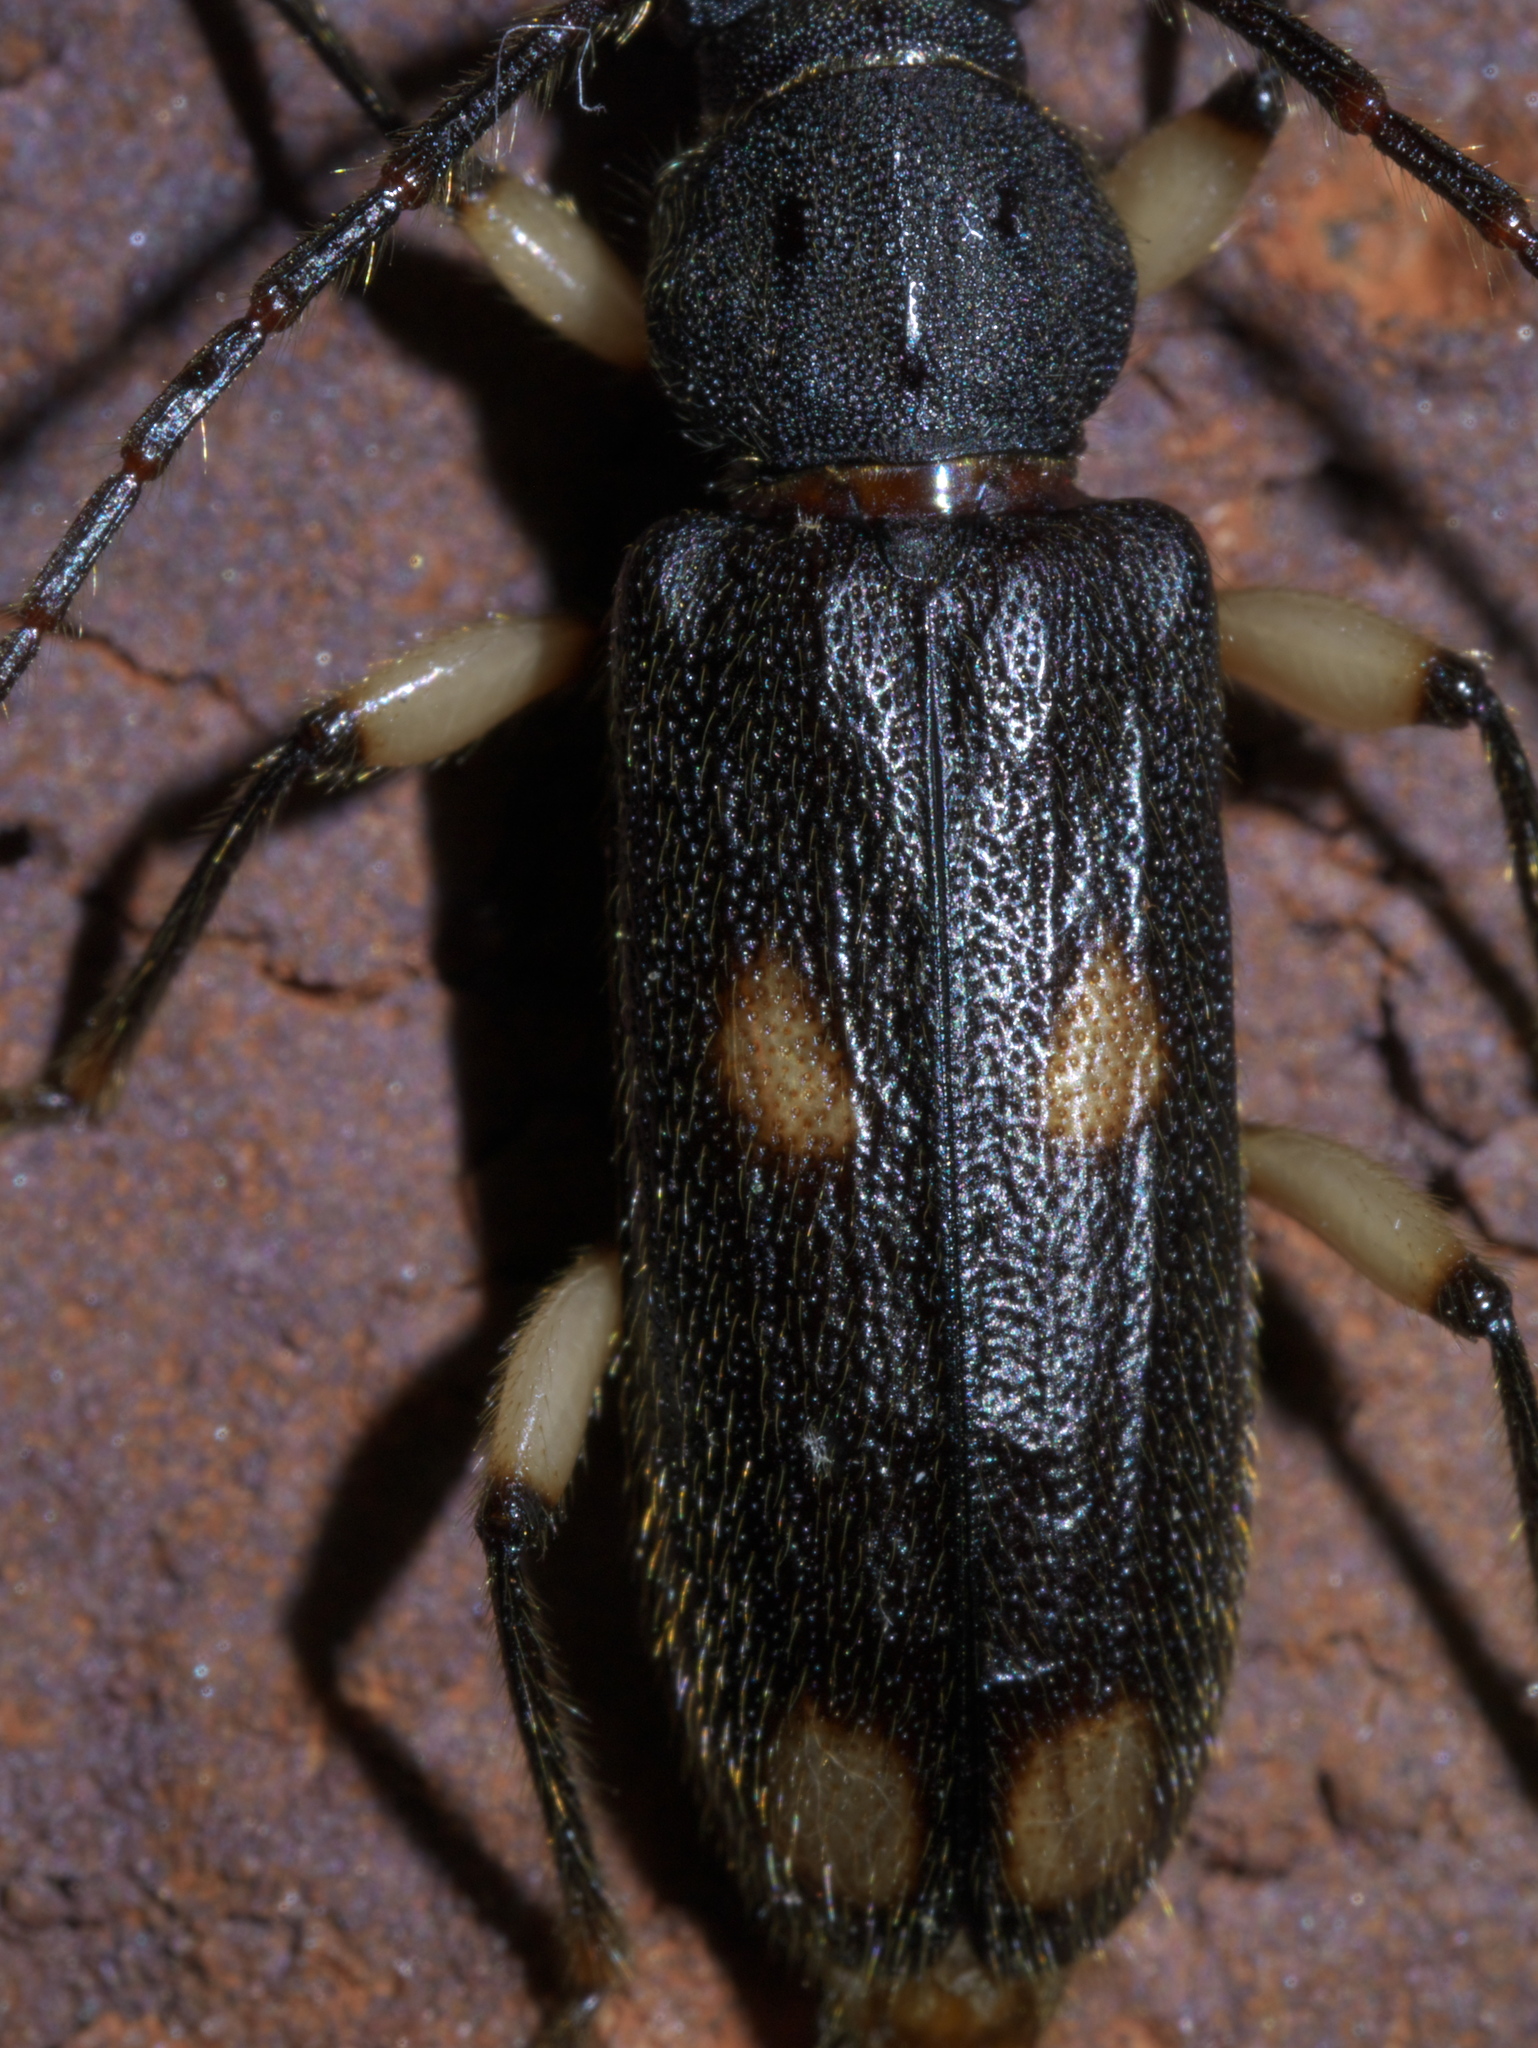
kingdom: Animalia
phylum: Arthropoda
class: Insecta
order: Coleoptera
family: Cerambycidae
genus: Tylonotus
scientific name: Tylonotus bimaculatus
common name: Ash and privet borer
